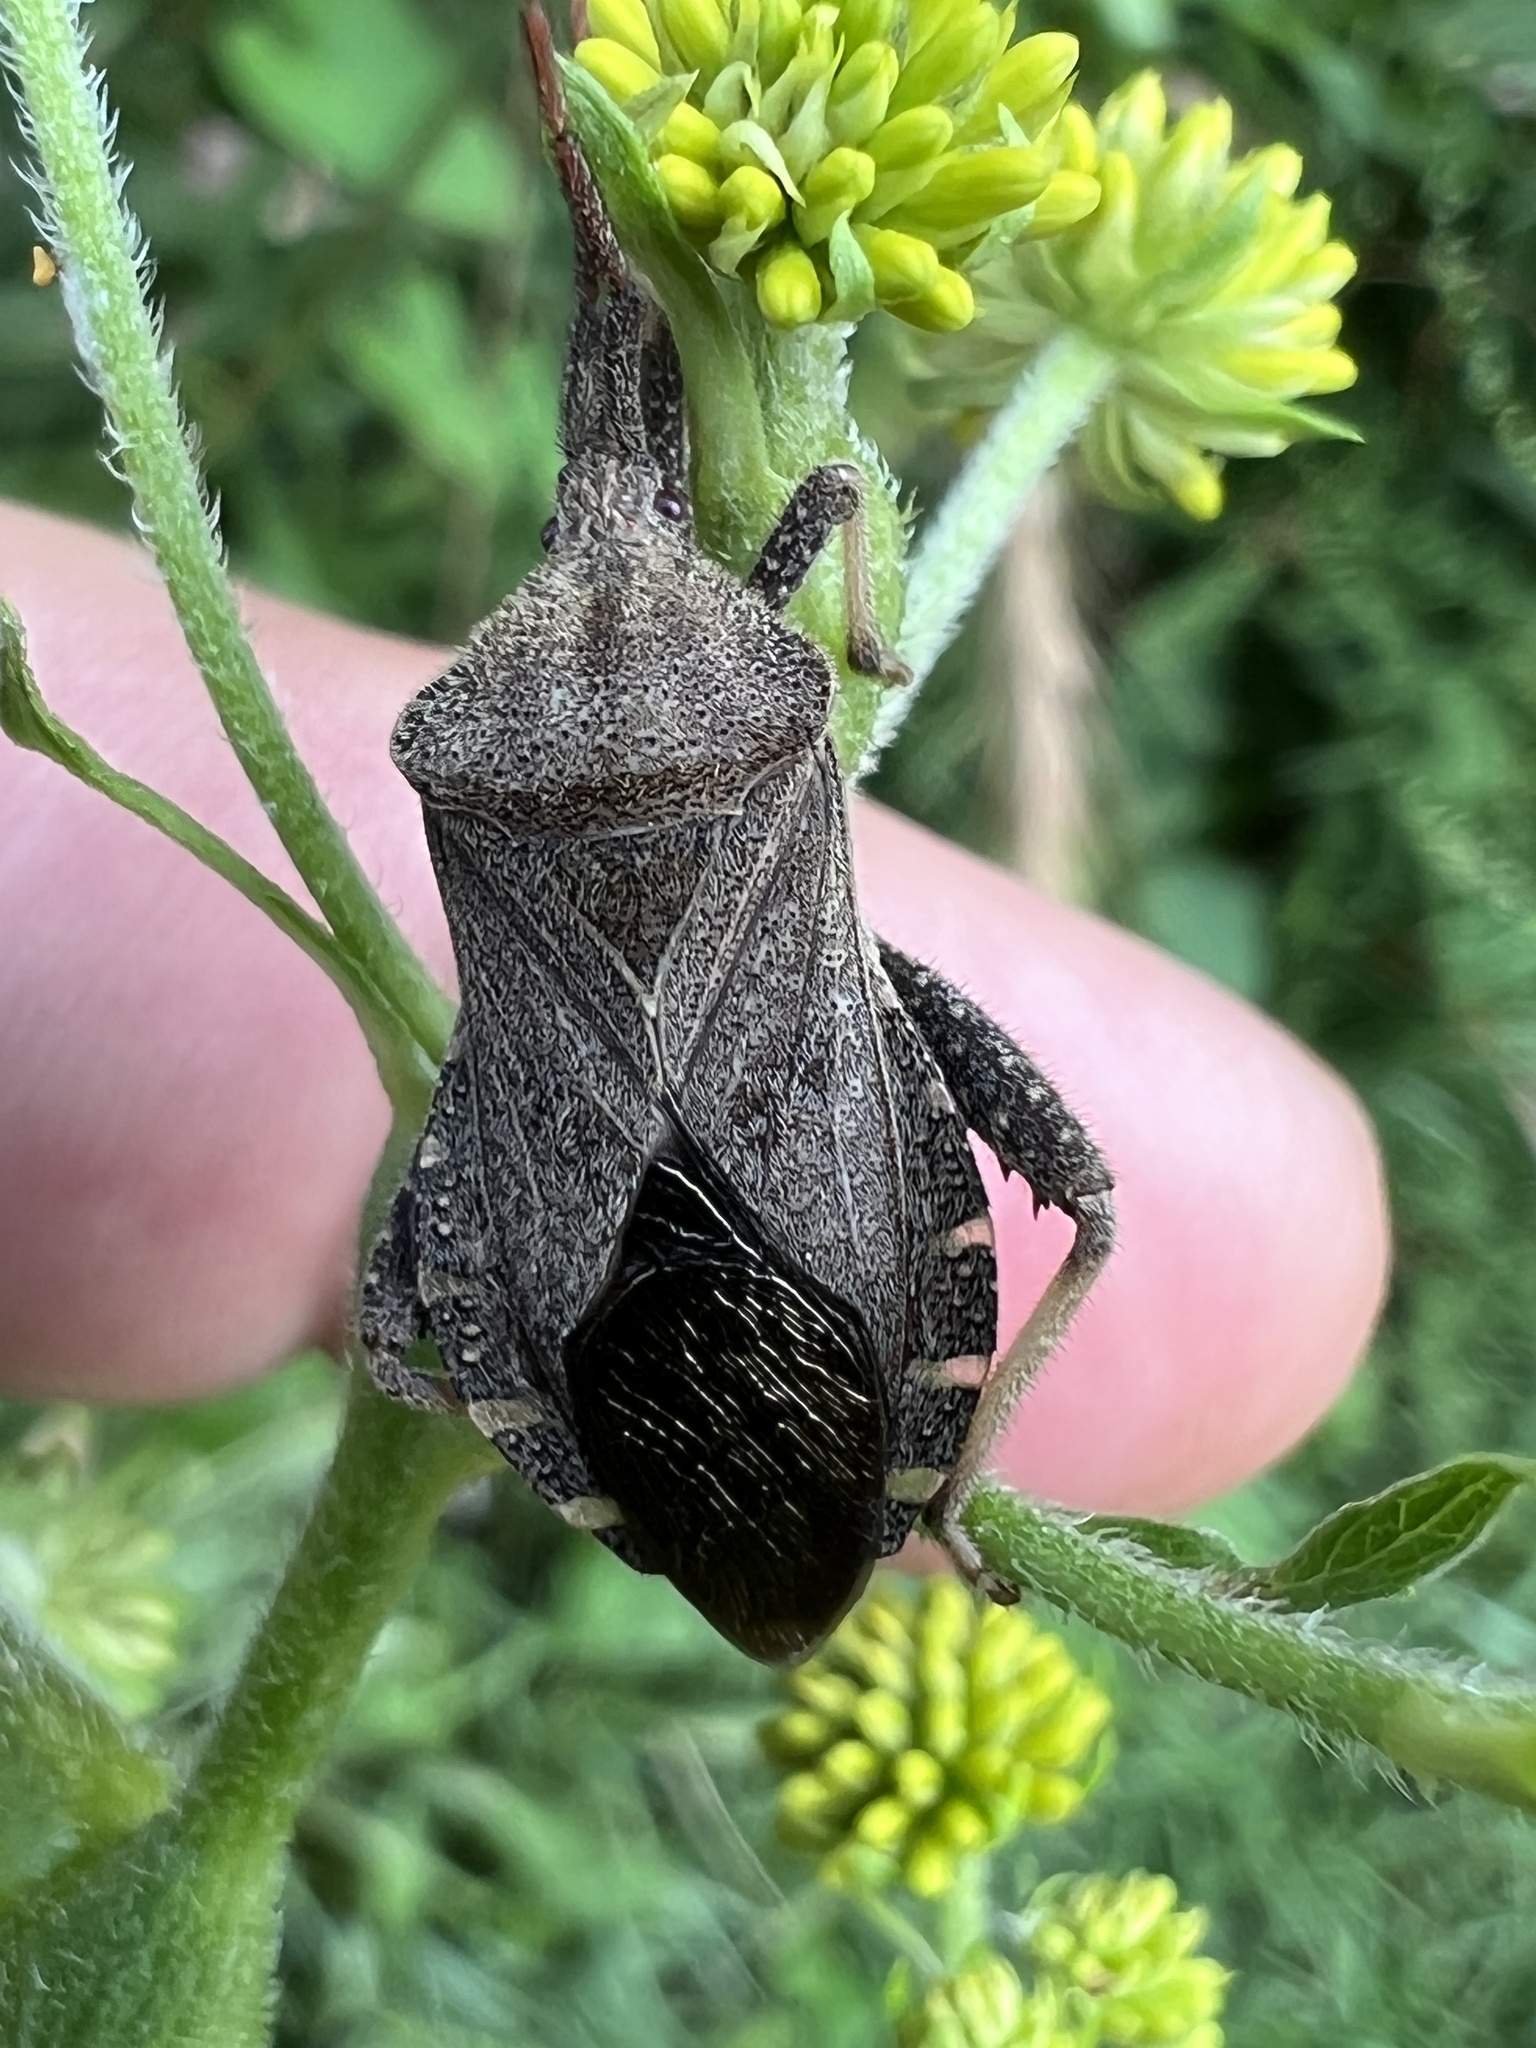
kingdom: Animalia
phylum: Arthropoda
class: Insecta
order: Hemiptera
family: Coreidae
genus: Piezogaster
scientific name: Piezogaster calcarator
